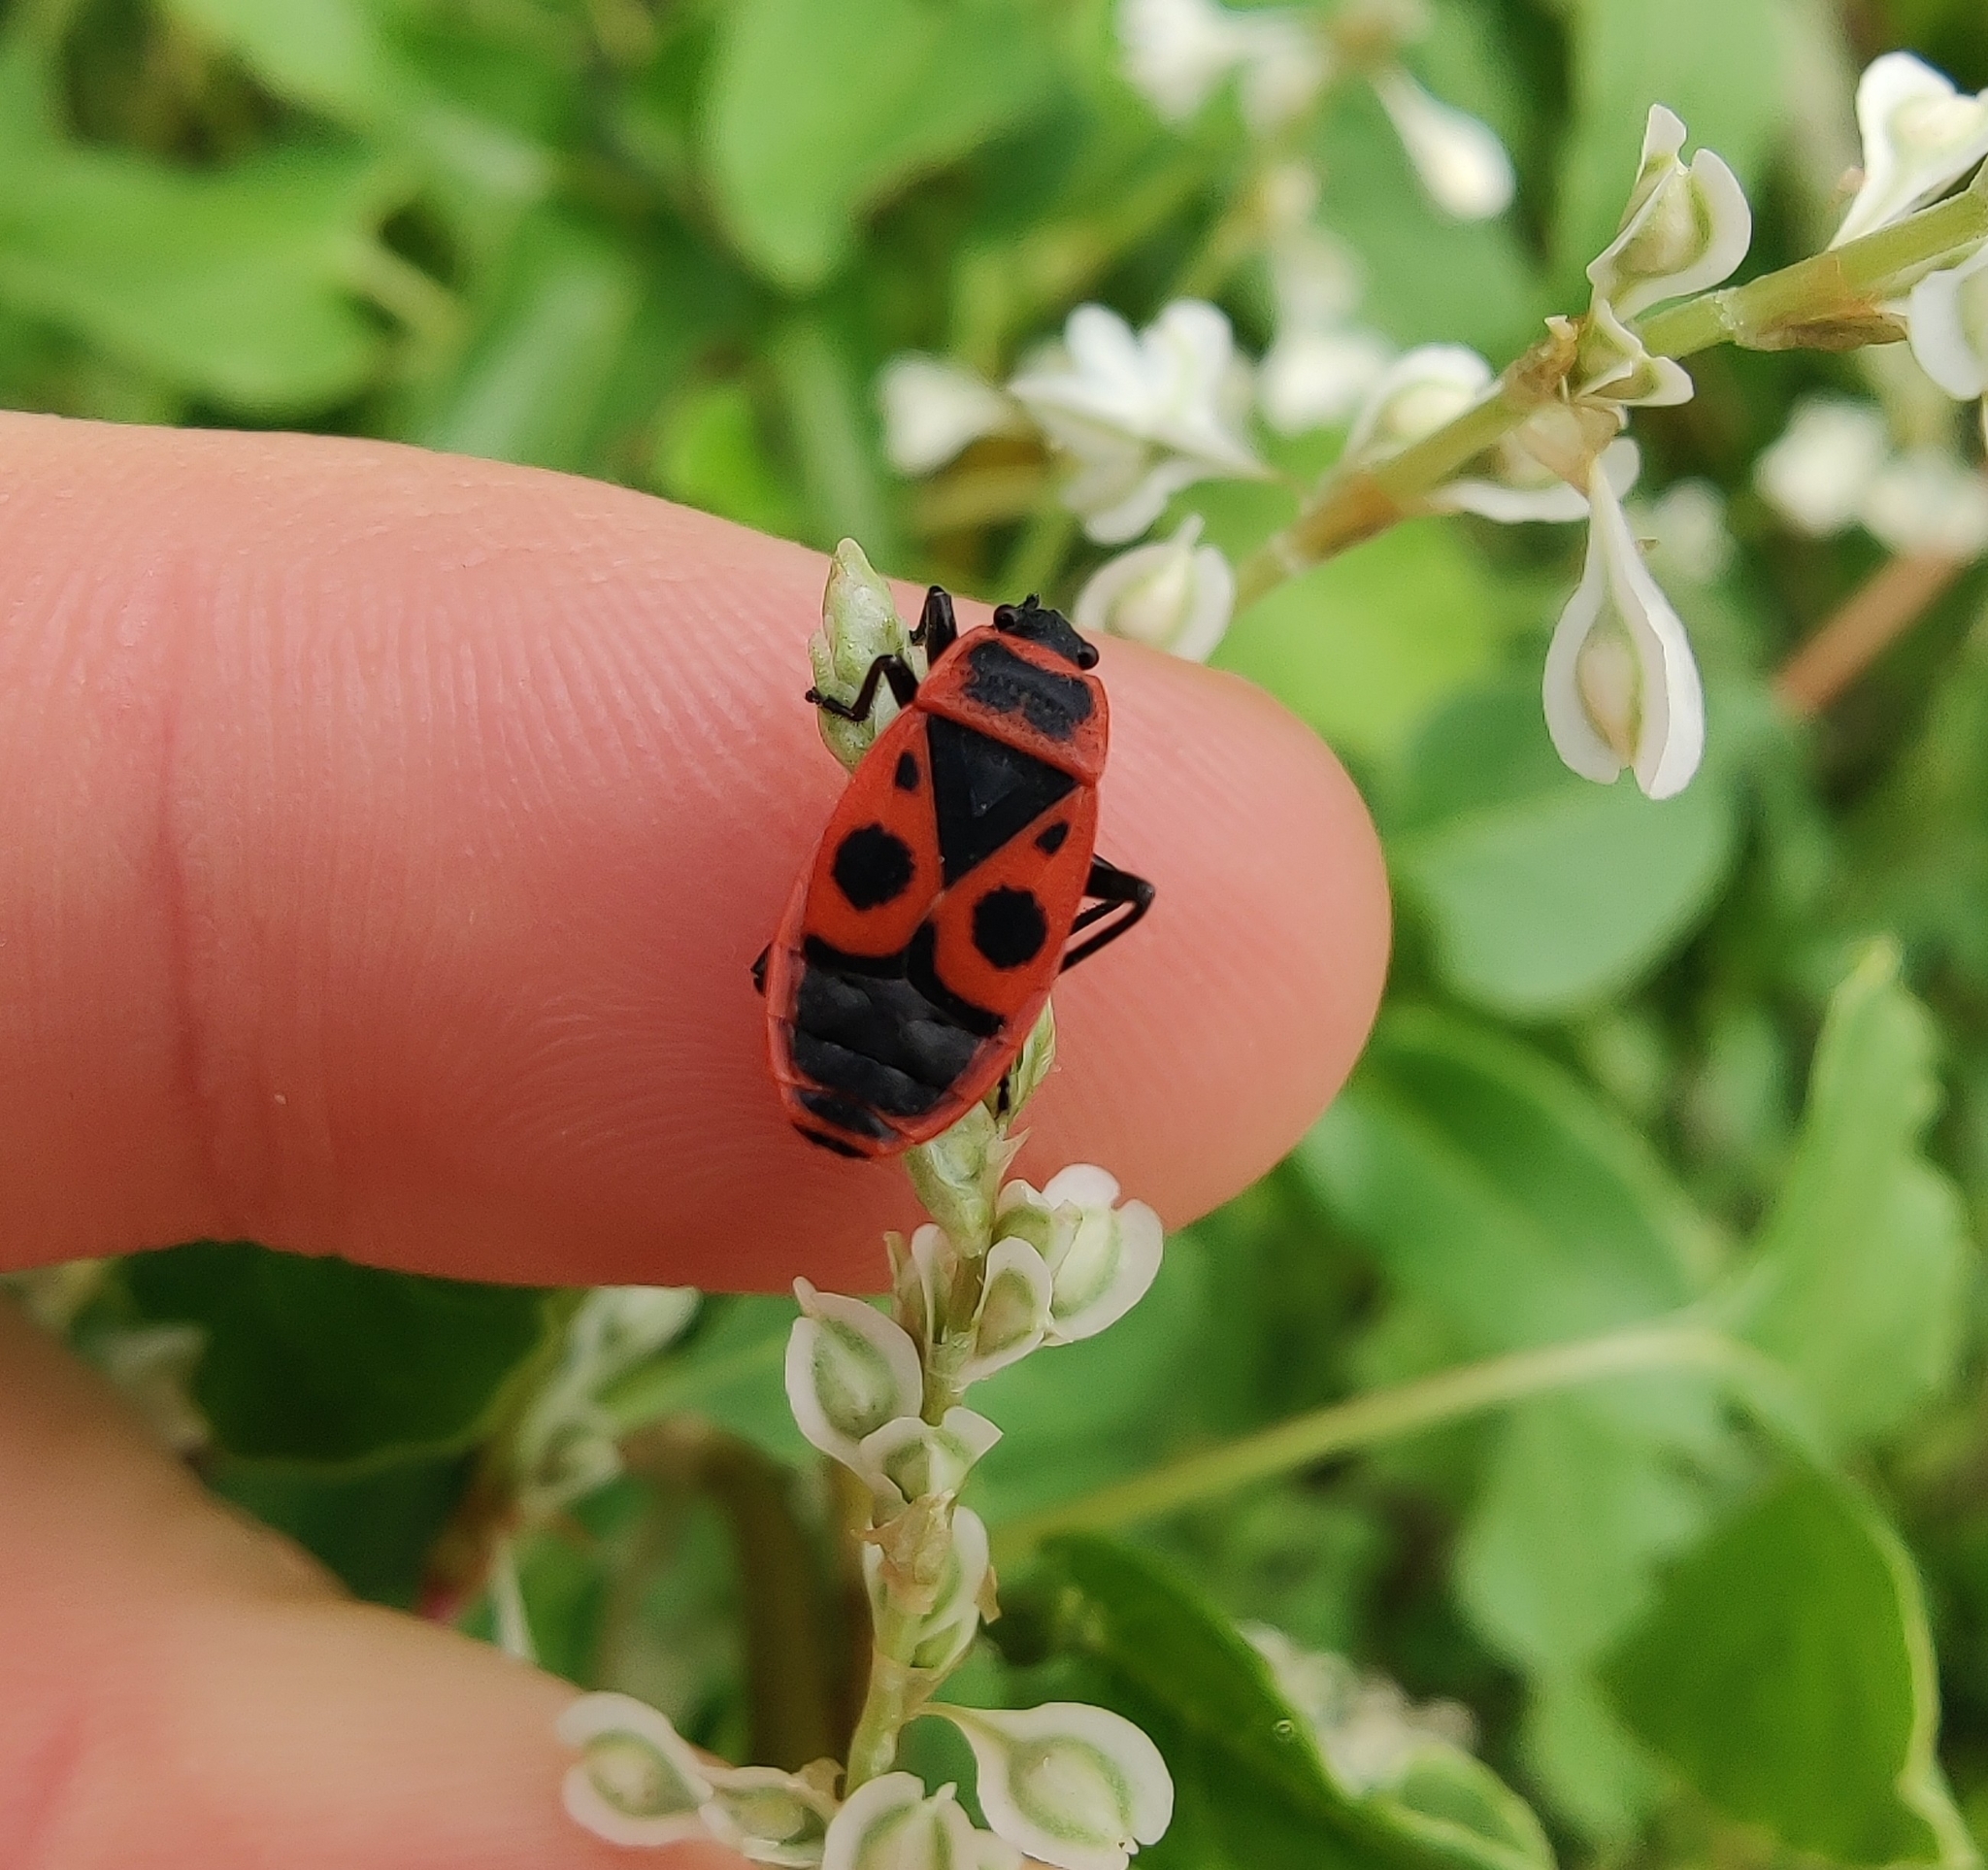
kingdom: Animalia
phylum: Arthropoda
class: Insecta
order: Hemiptera
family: Pyrrhocoridae
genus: Pyrrhocoris
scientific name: Pyrrhocoris apterus
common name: Firebug
